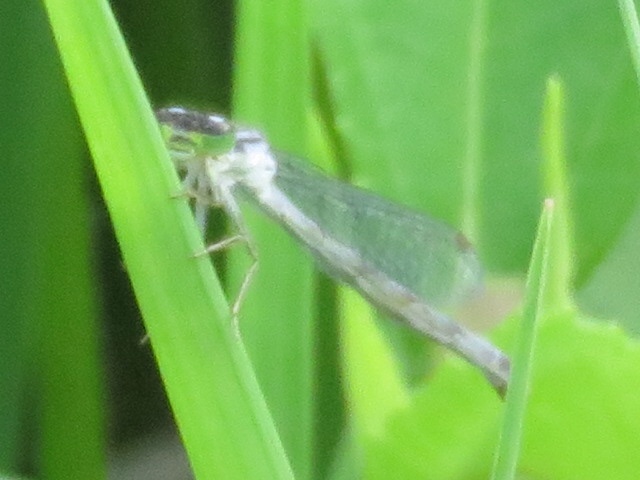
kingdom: Animalia
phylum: Arthropoda
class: Insecta
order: Odonata
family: Coenagrionidae
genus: Ischnura
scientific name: Ischnura verticalis
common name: Eastern forktail
